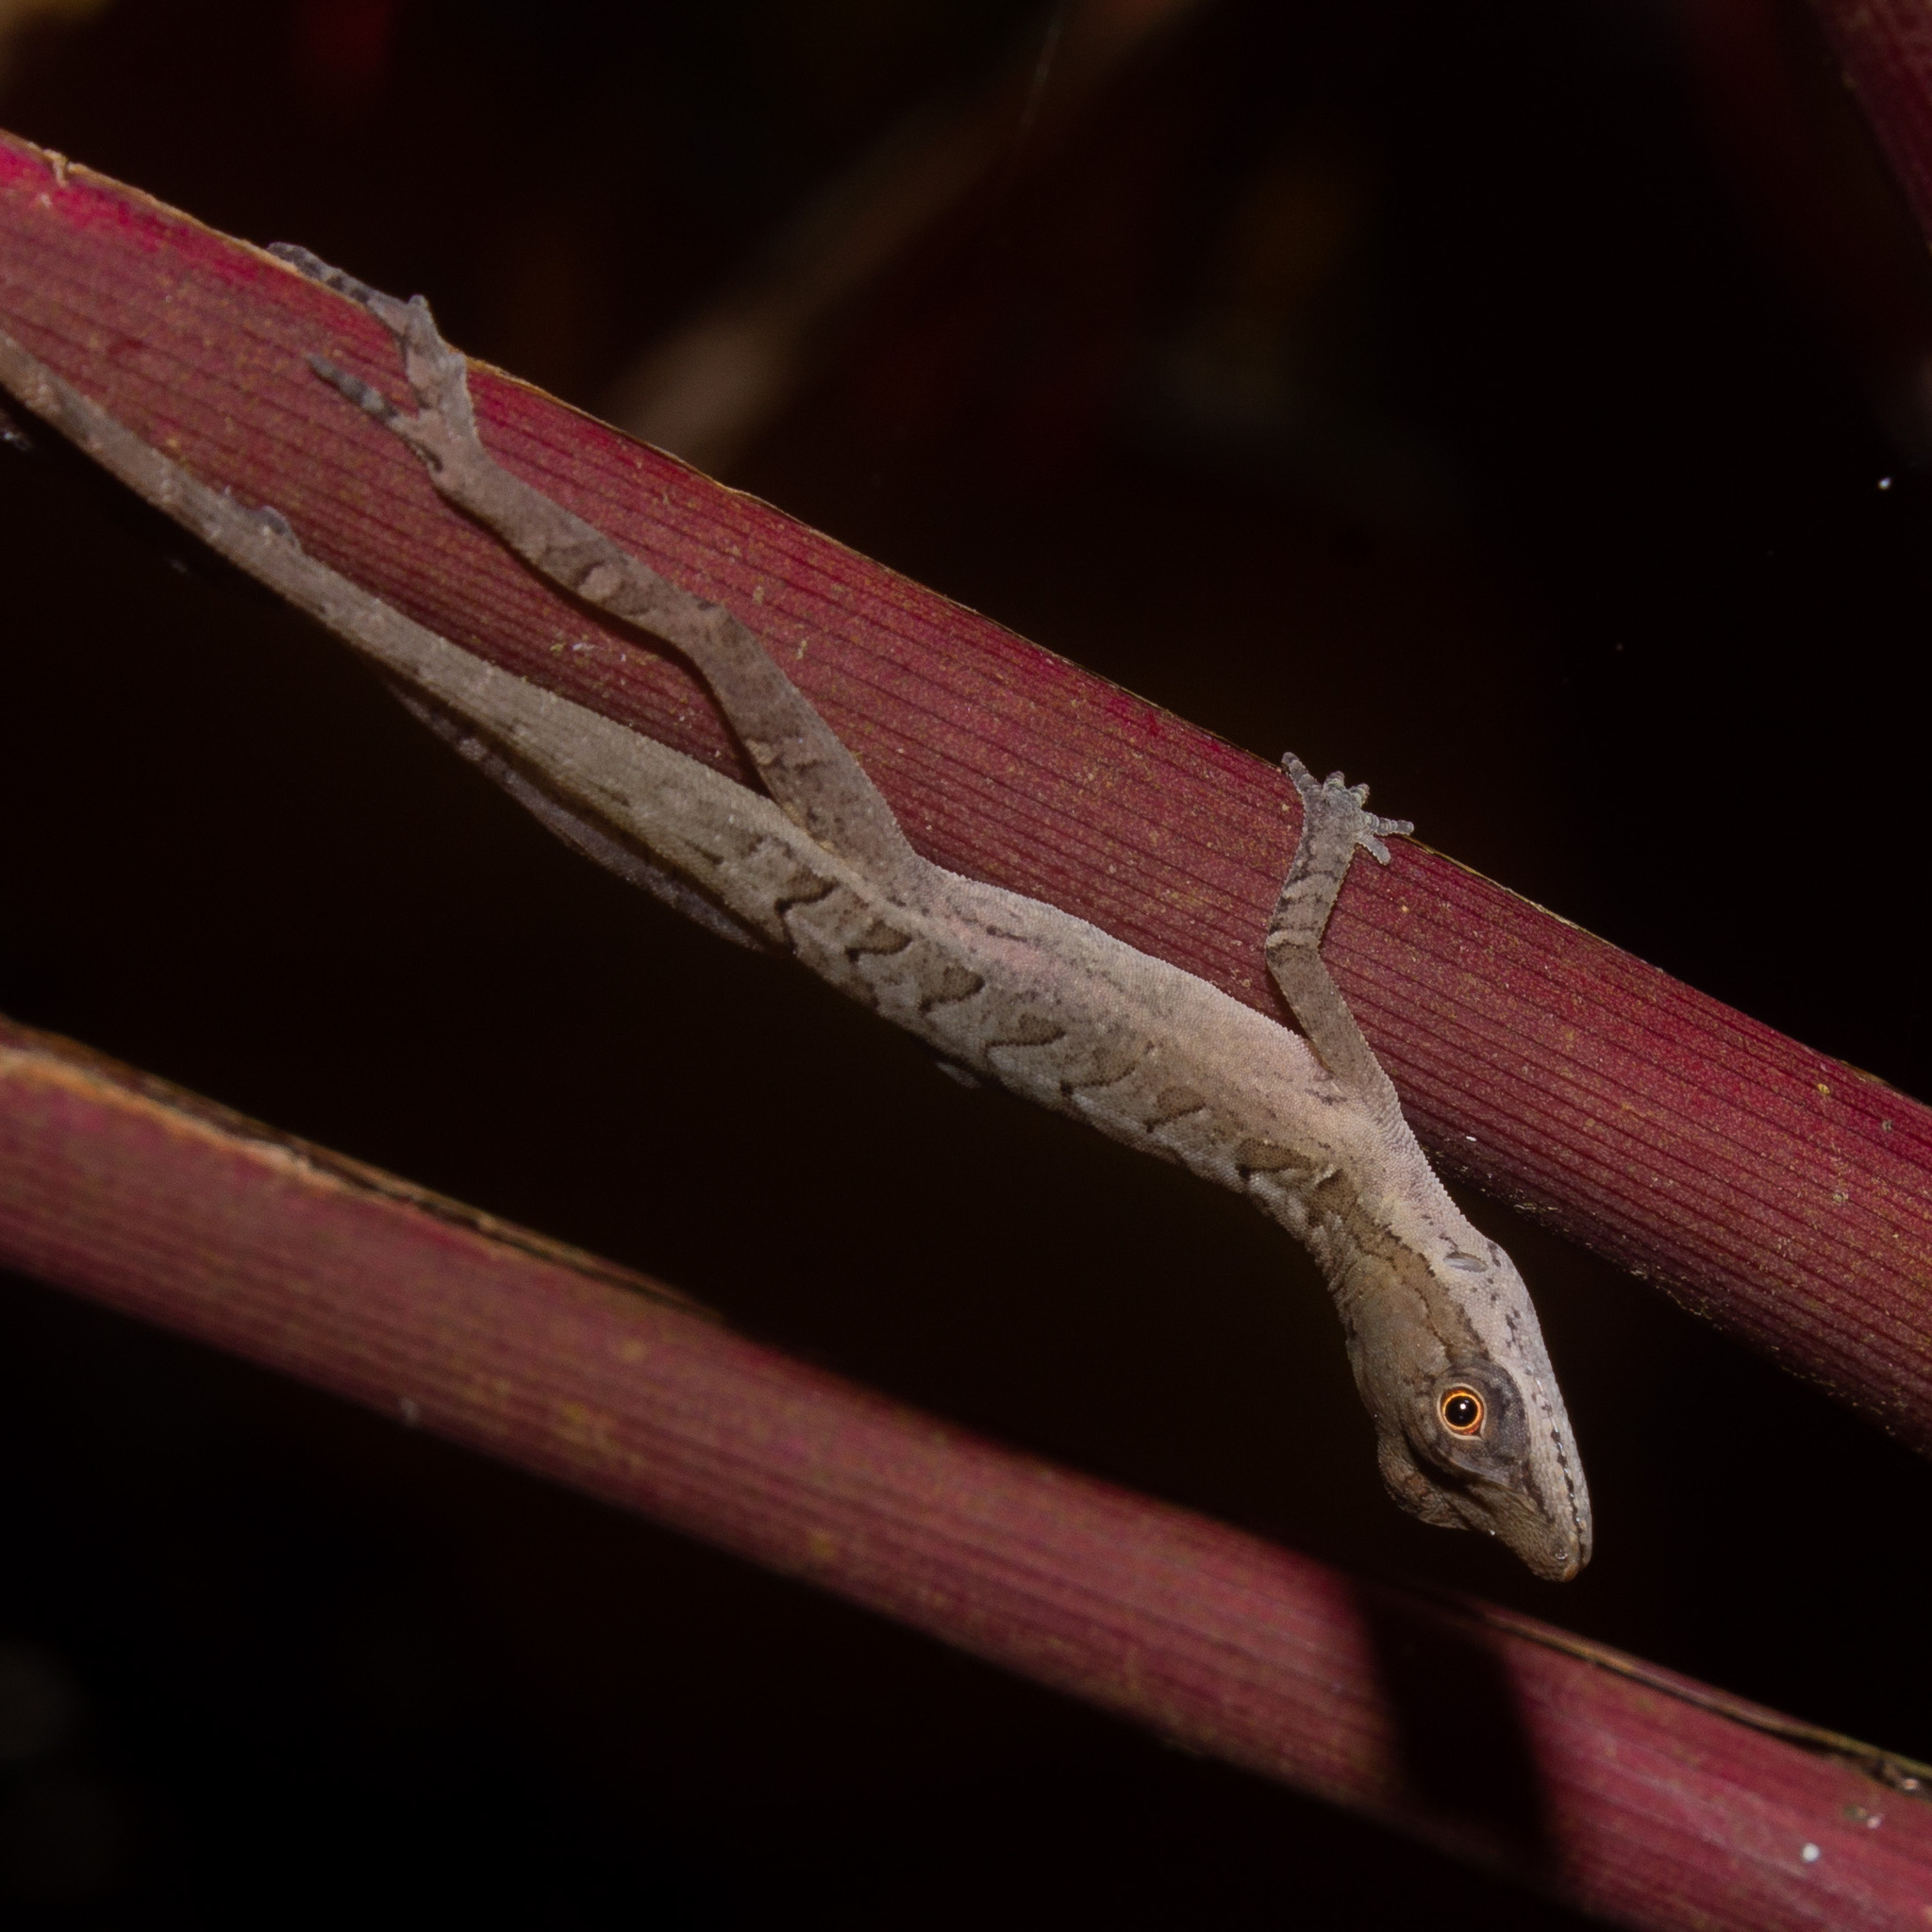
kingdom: Animalia
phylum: Chordata
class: Squamata
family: Dactyloidae
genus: Anolis
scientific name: Anolis gaigei
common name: Gaige’s anole
